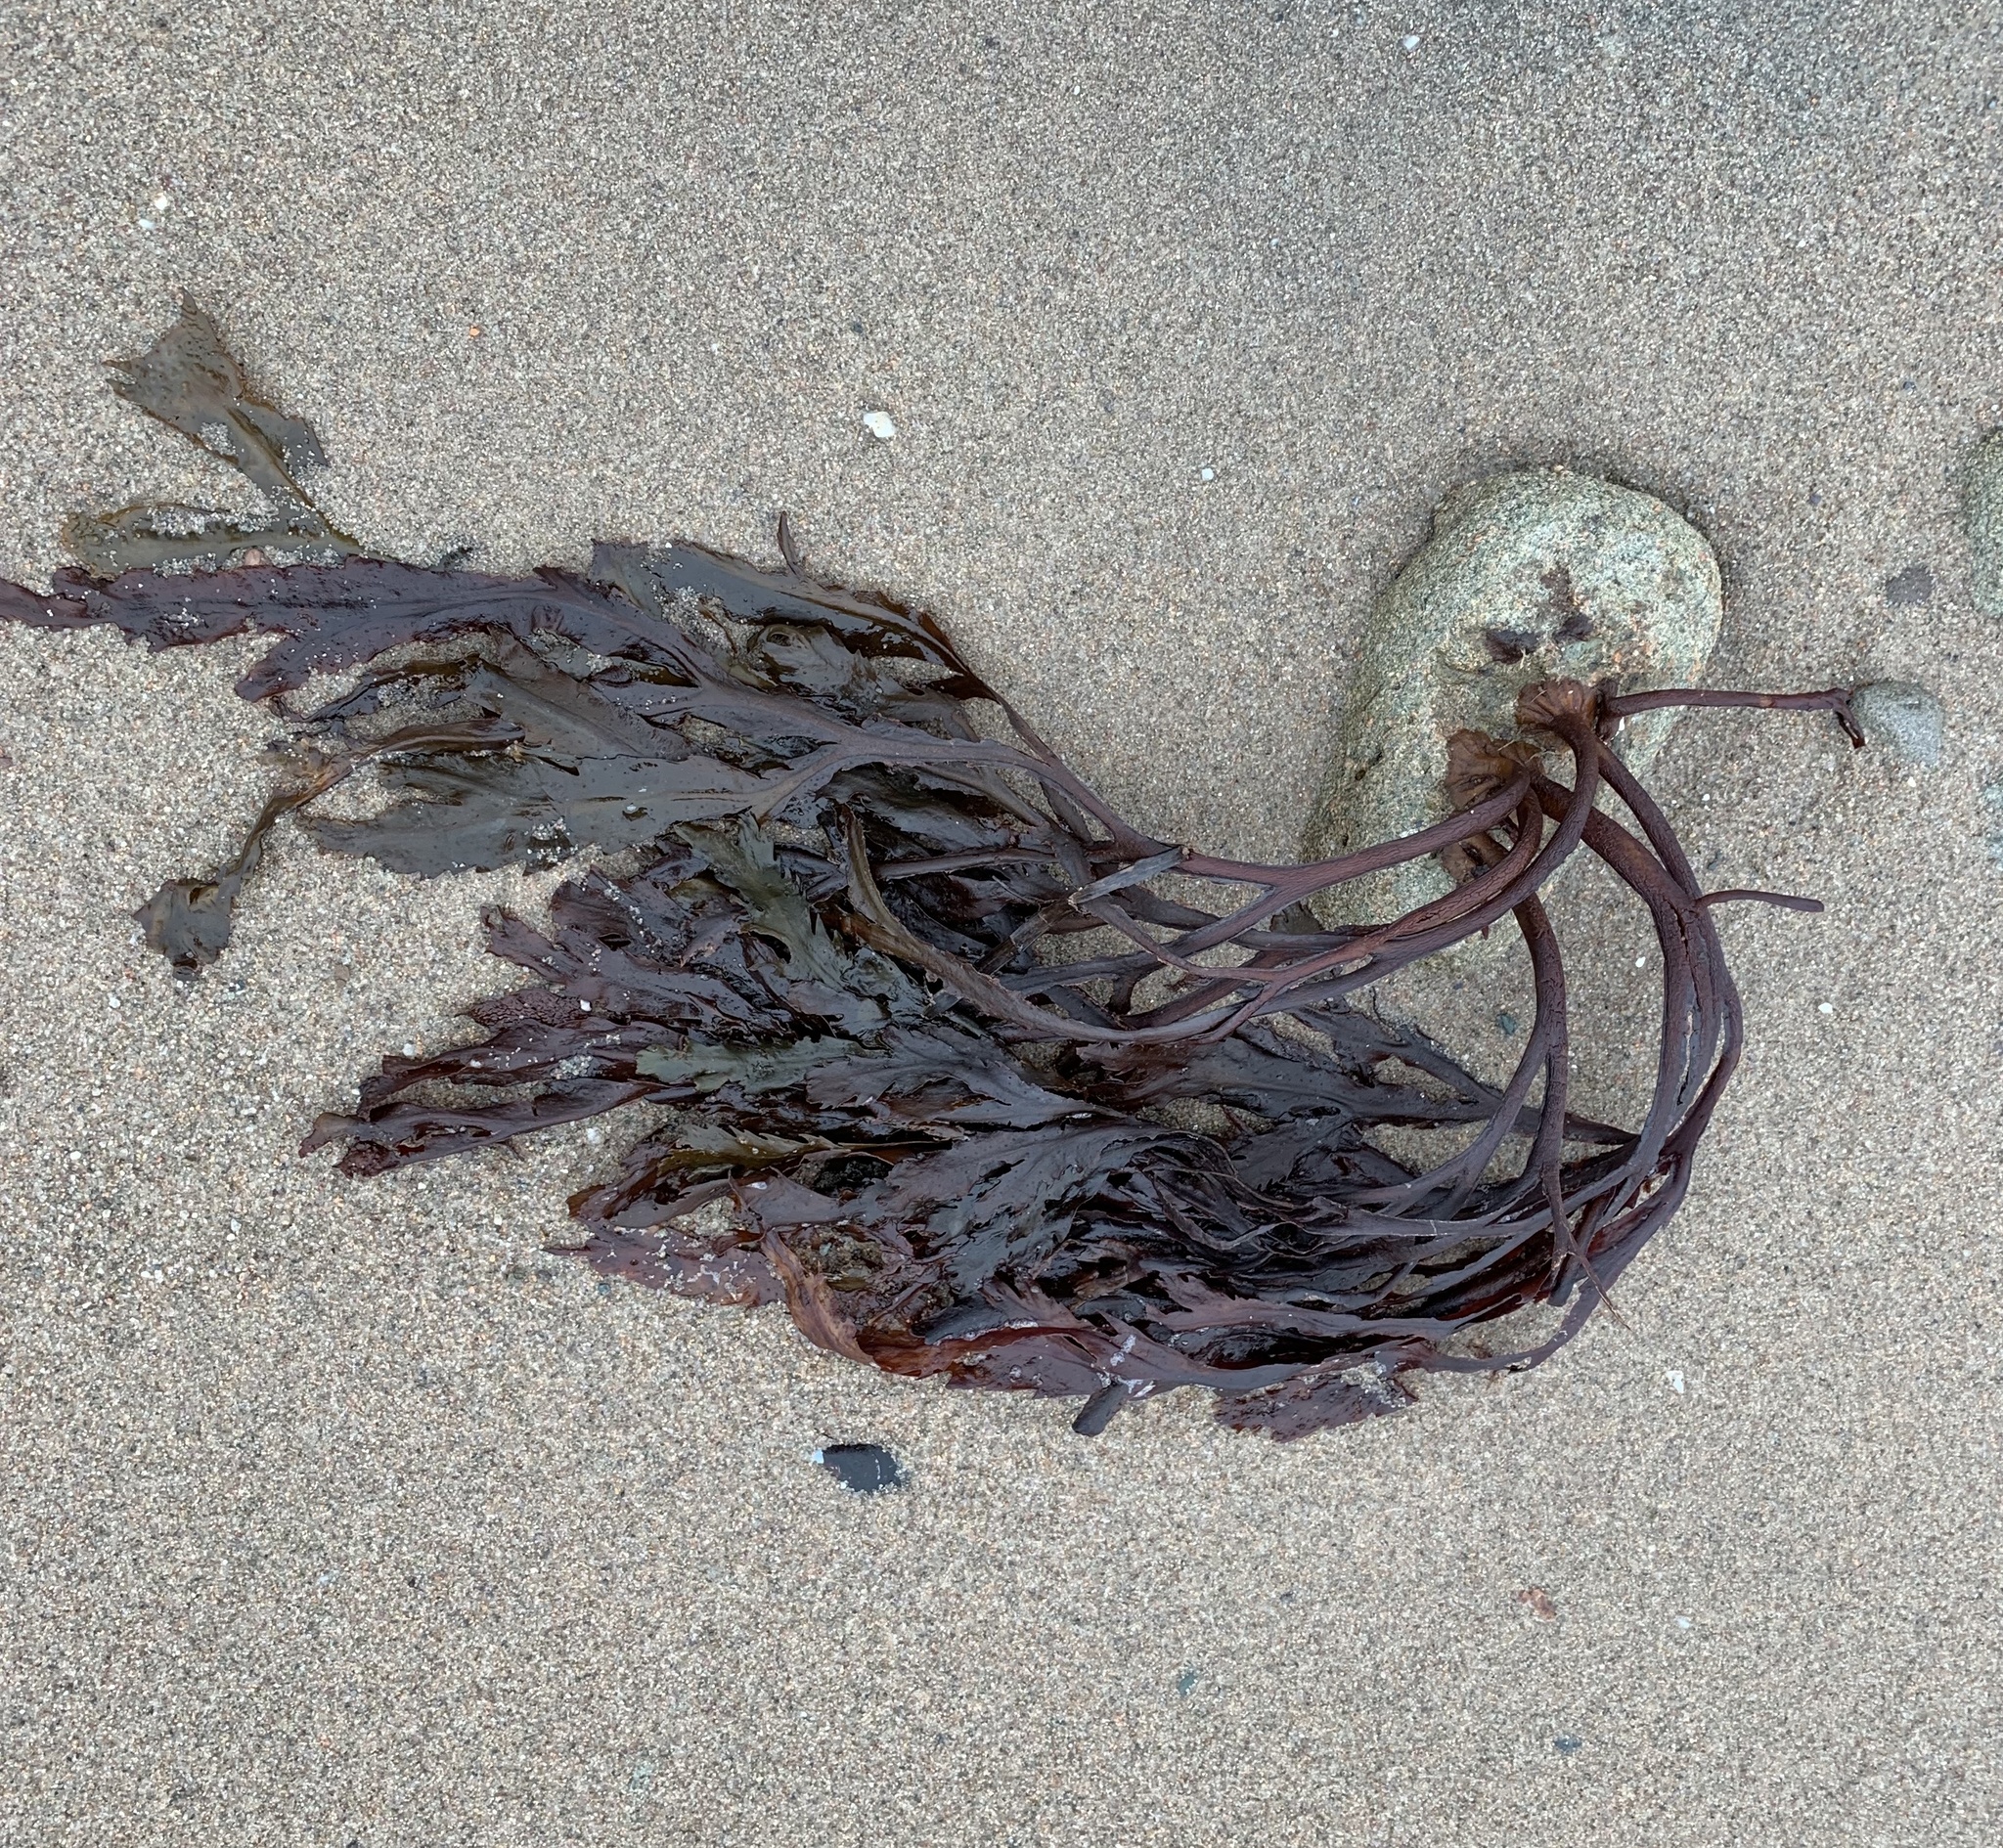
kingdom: Chromista
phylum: Ochrophyta
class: Phaeophyceae
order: Fucales
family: Fucaceae
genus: Fucus
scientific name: Fucus serratus
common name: Toothed wrack
